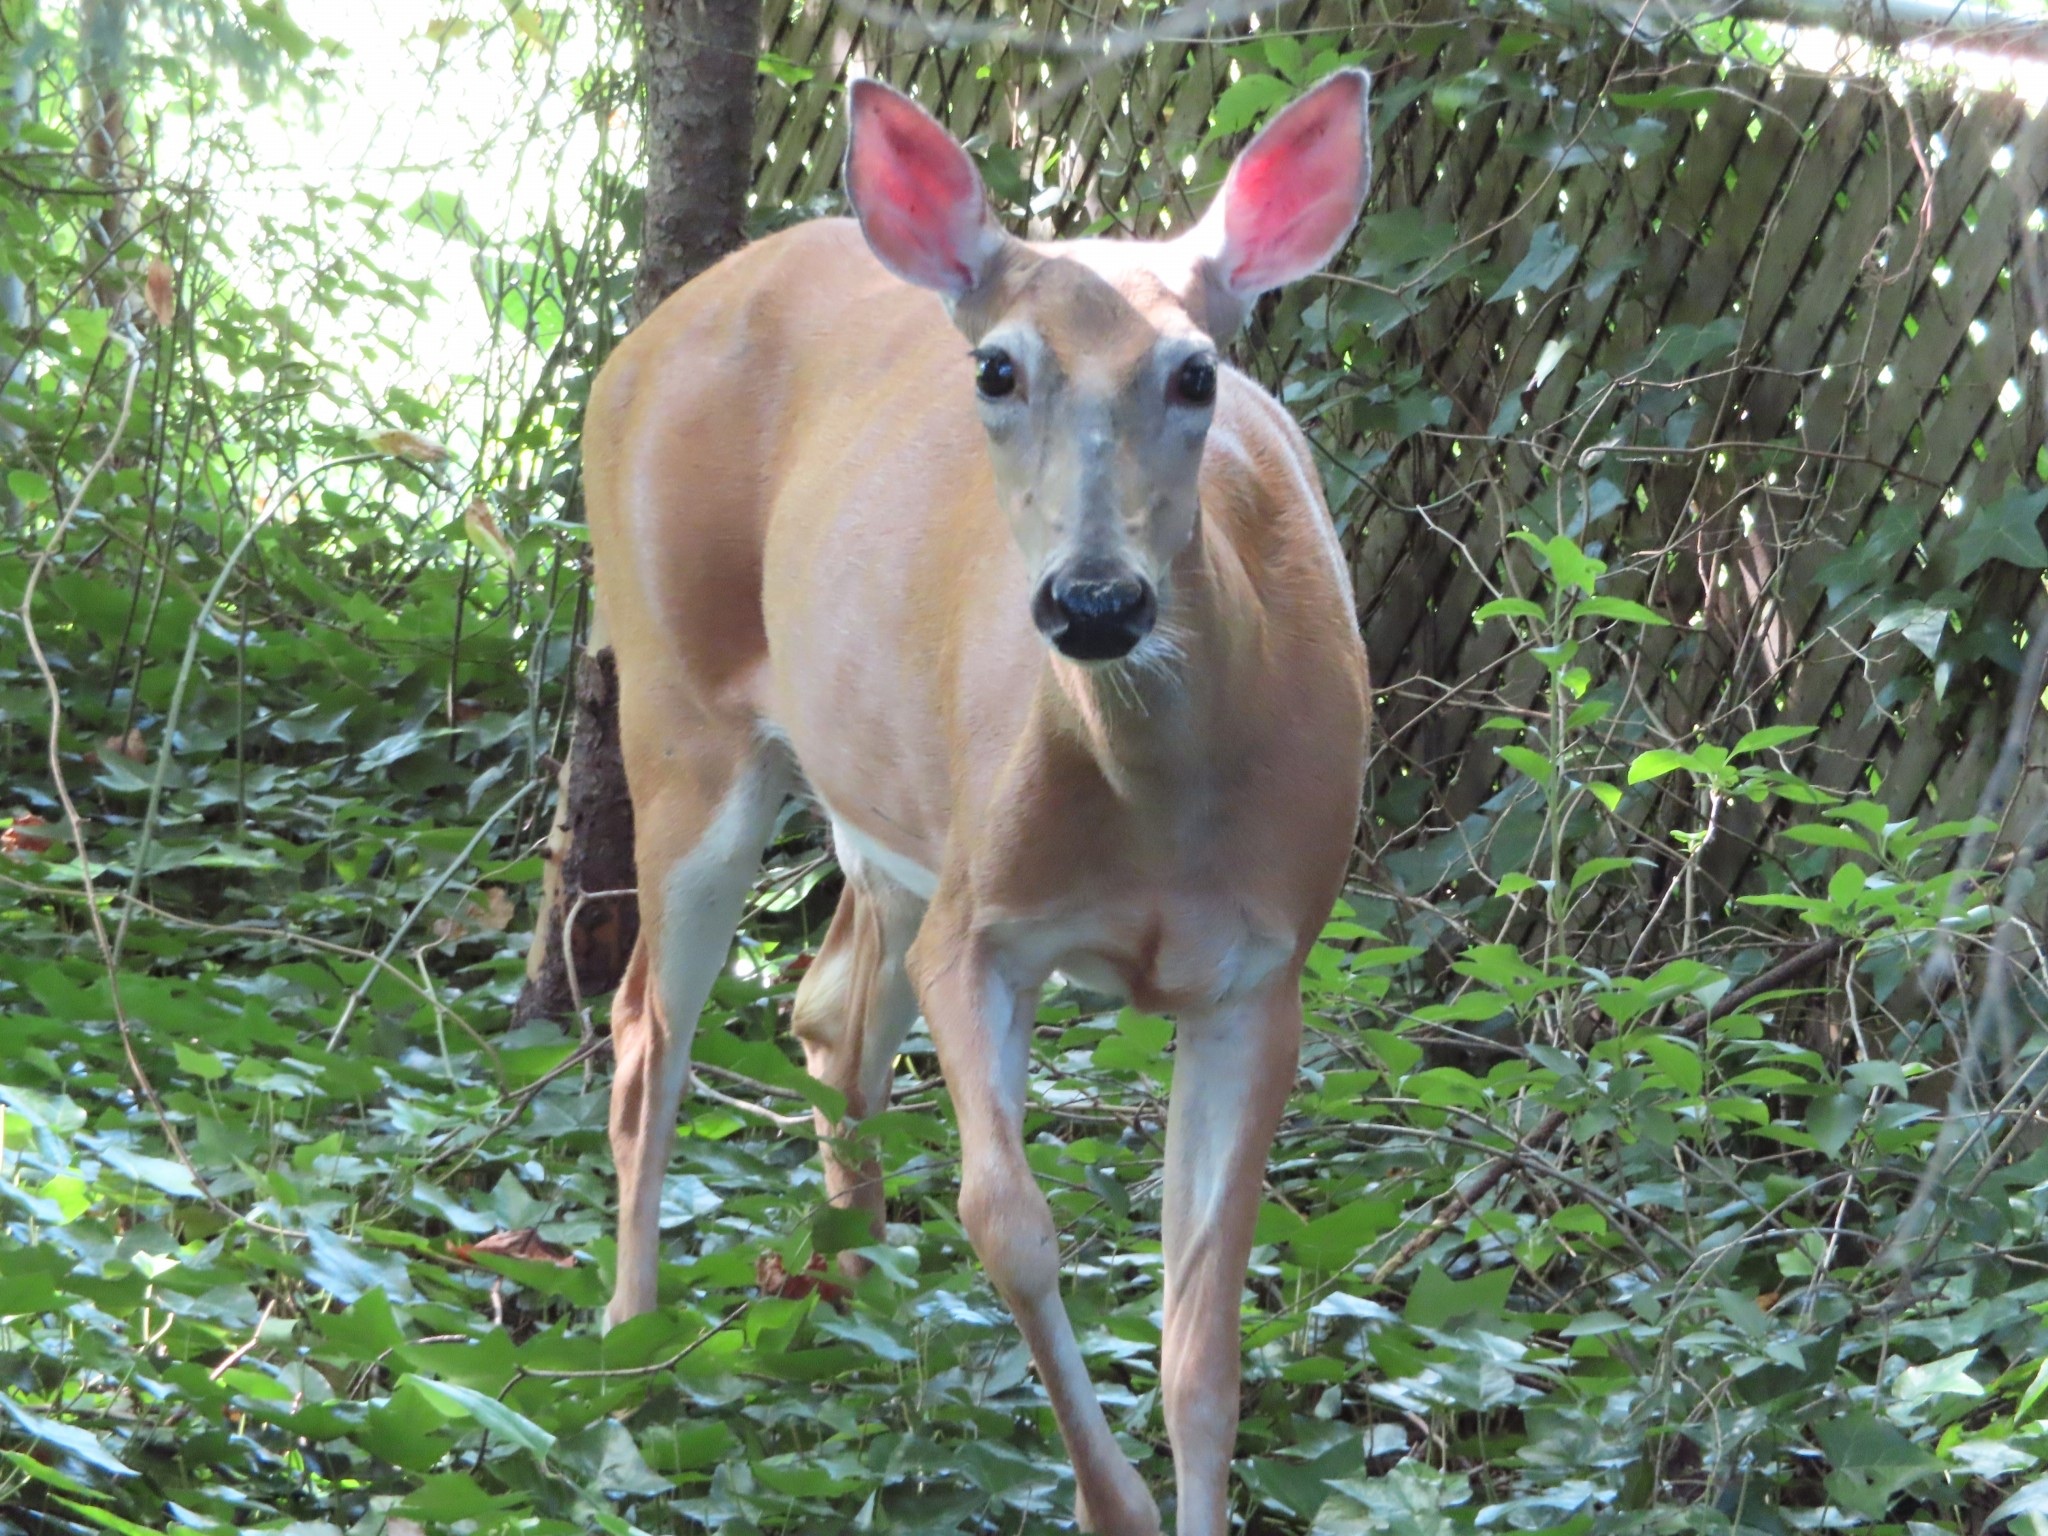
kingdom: Animalia
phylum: Chordata
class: Mammalia
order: Artiodactyla
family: Cervidae
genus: Odocoileus
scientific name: Odocoileus virginianus
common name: White-tailed deer
